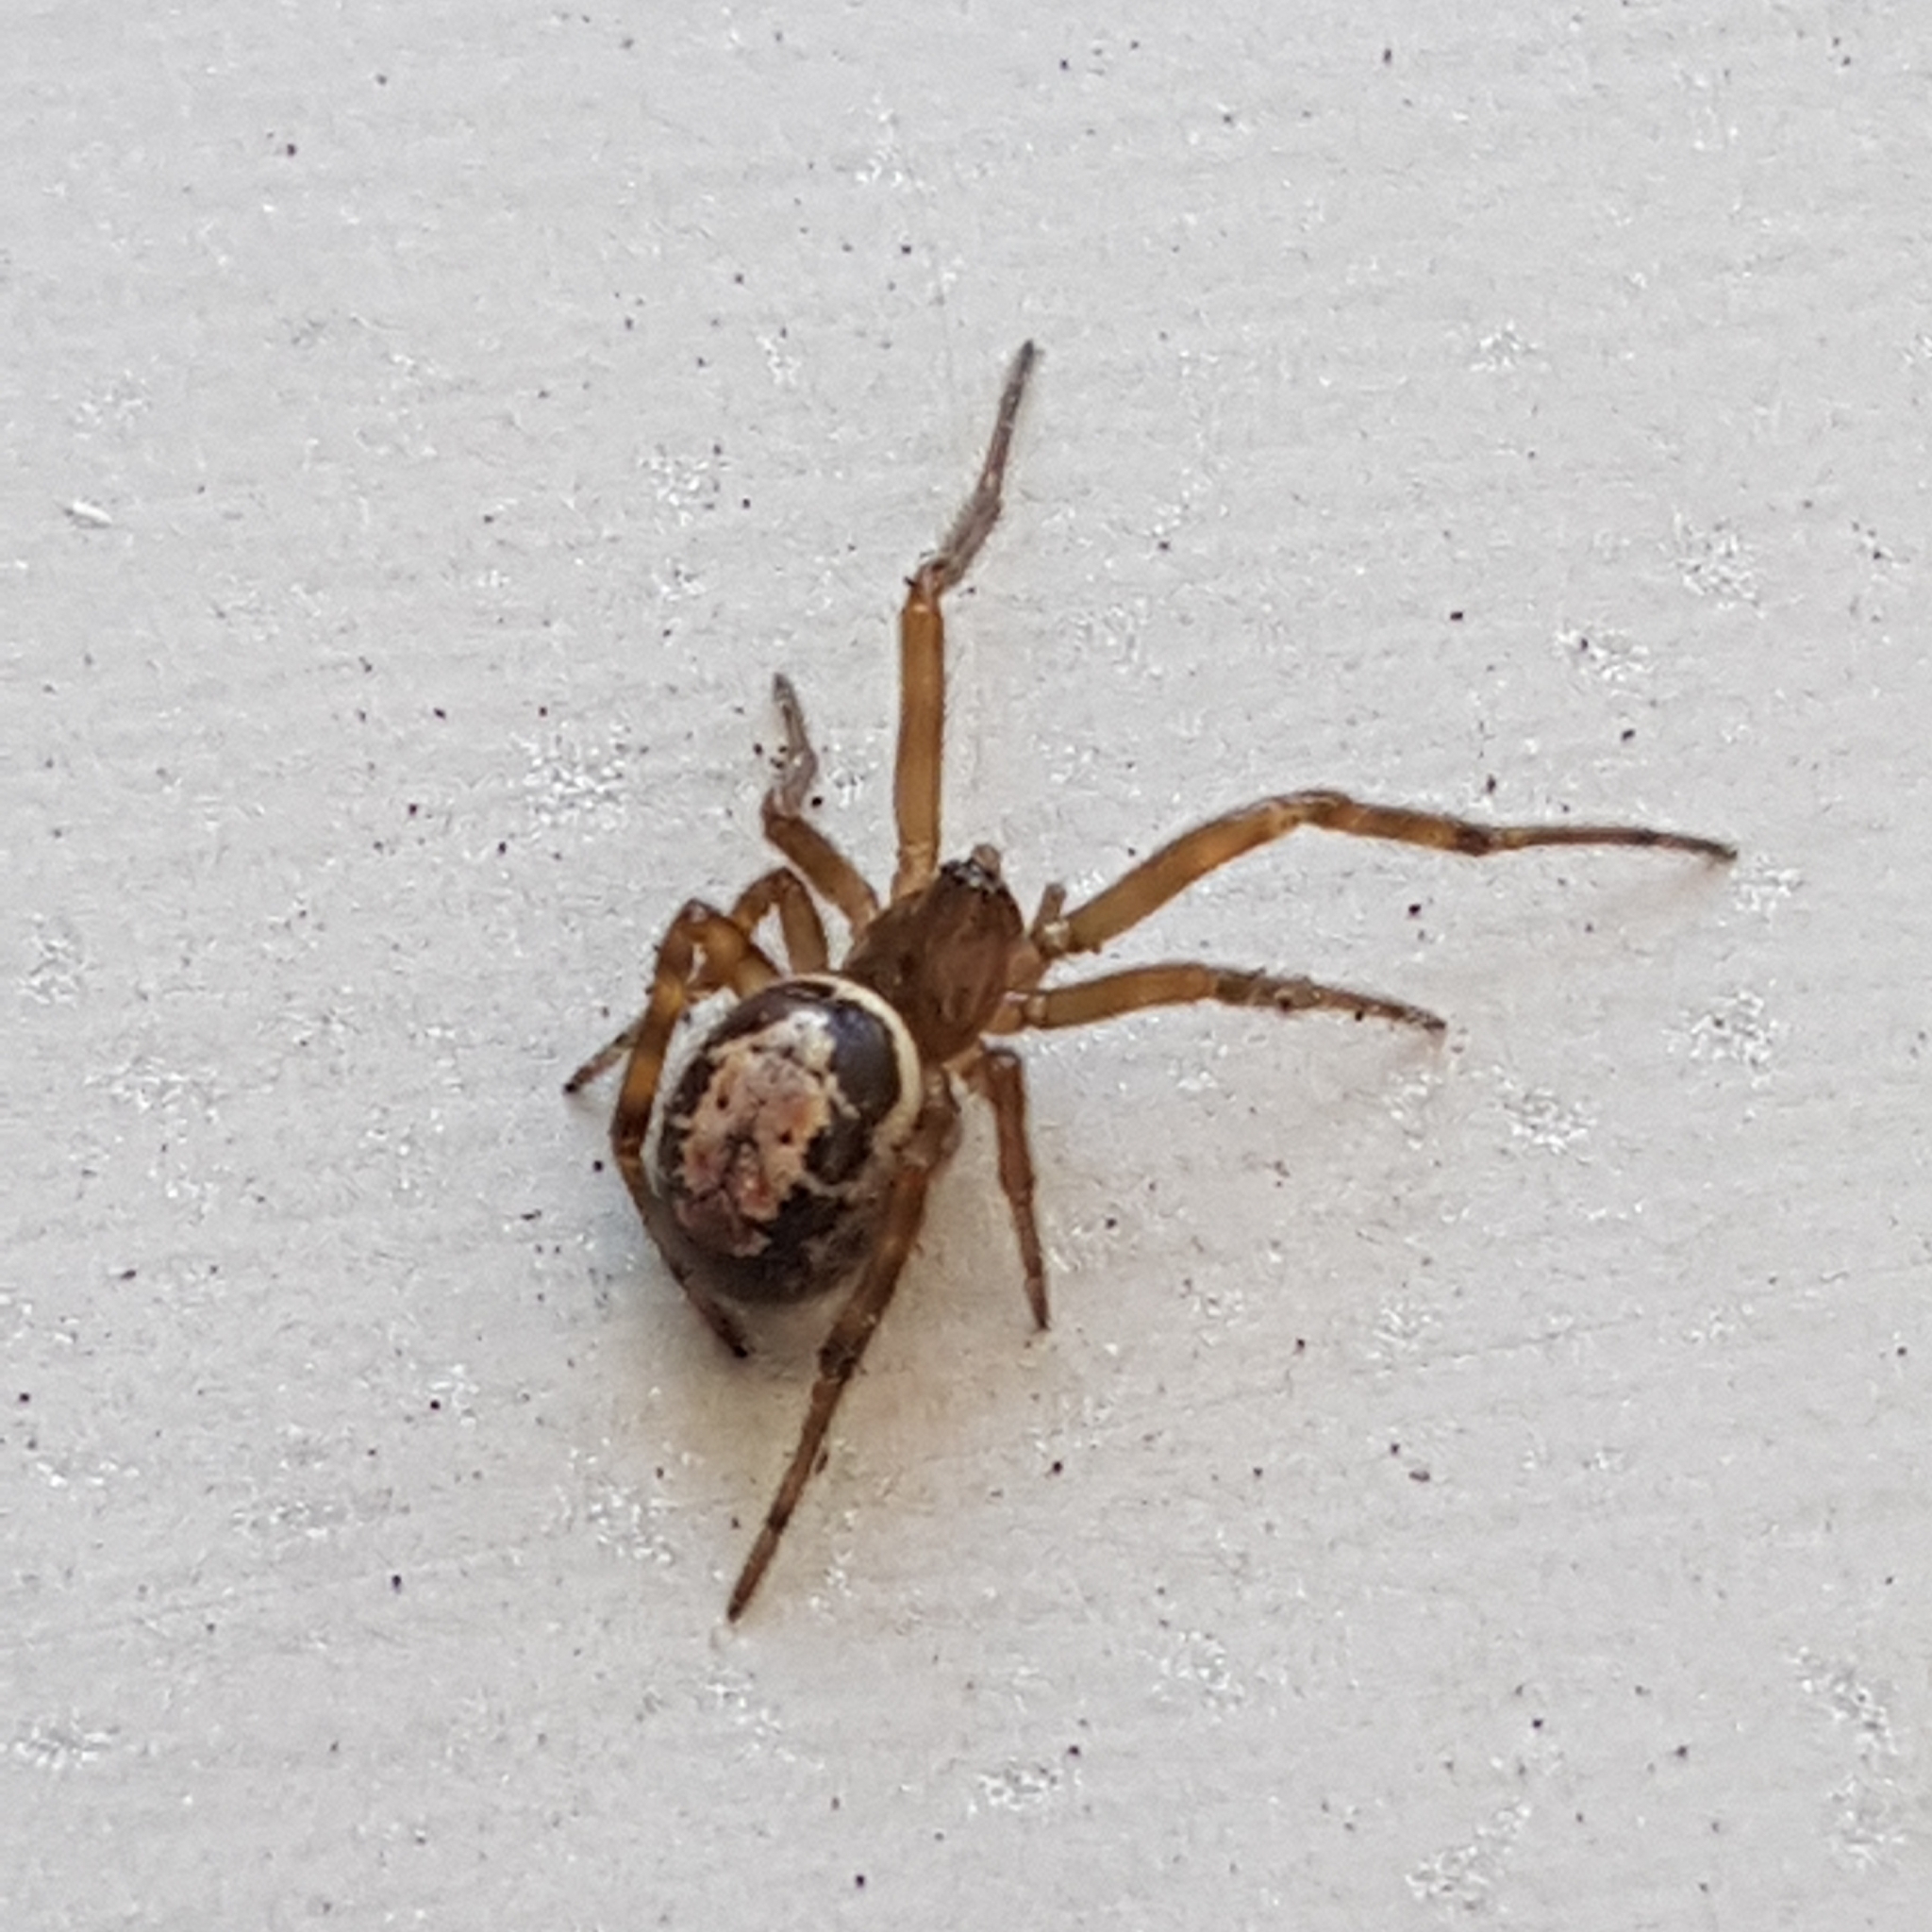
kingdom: Animalia
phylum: Arthropoda
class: Arachnida
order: Araneae
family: Theridiidae
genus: Steatoda
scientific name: Steatoda nobilis
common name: Cobweb weaver
